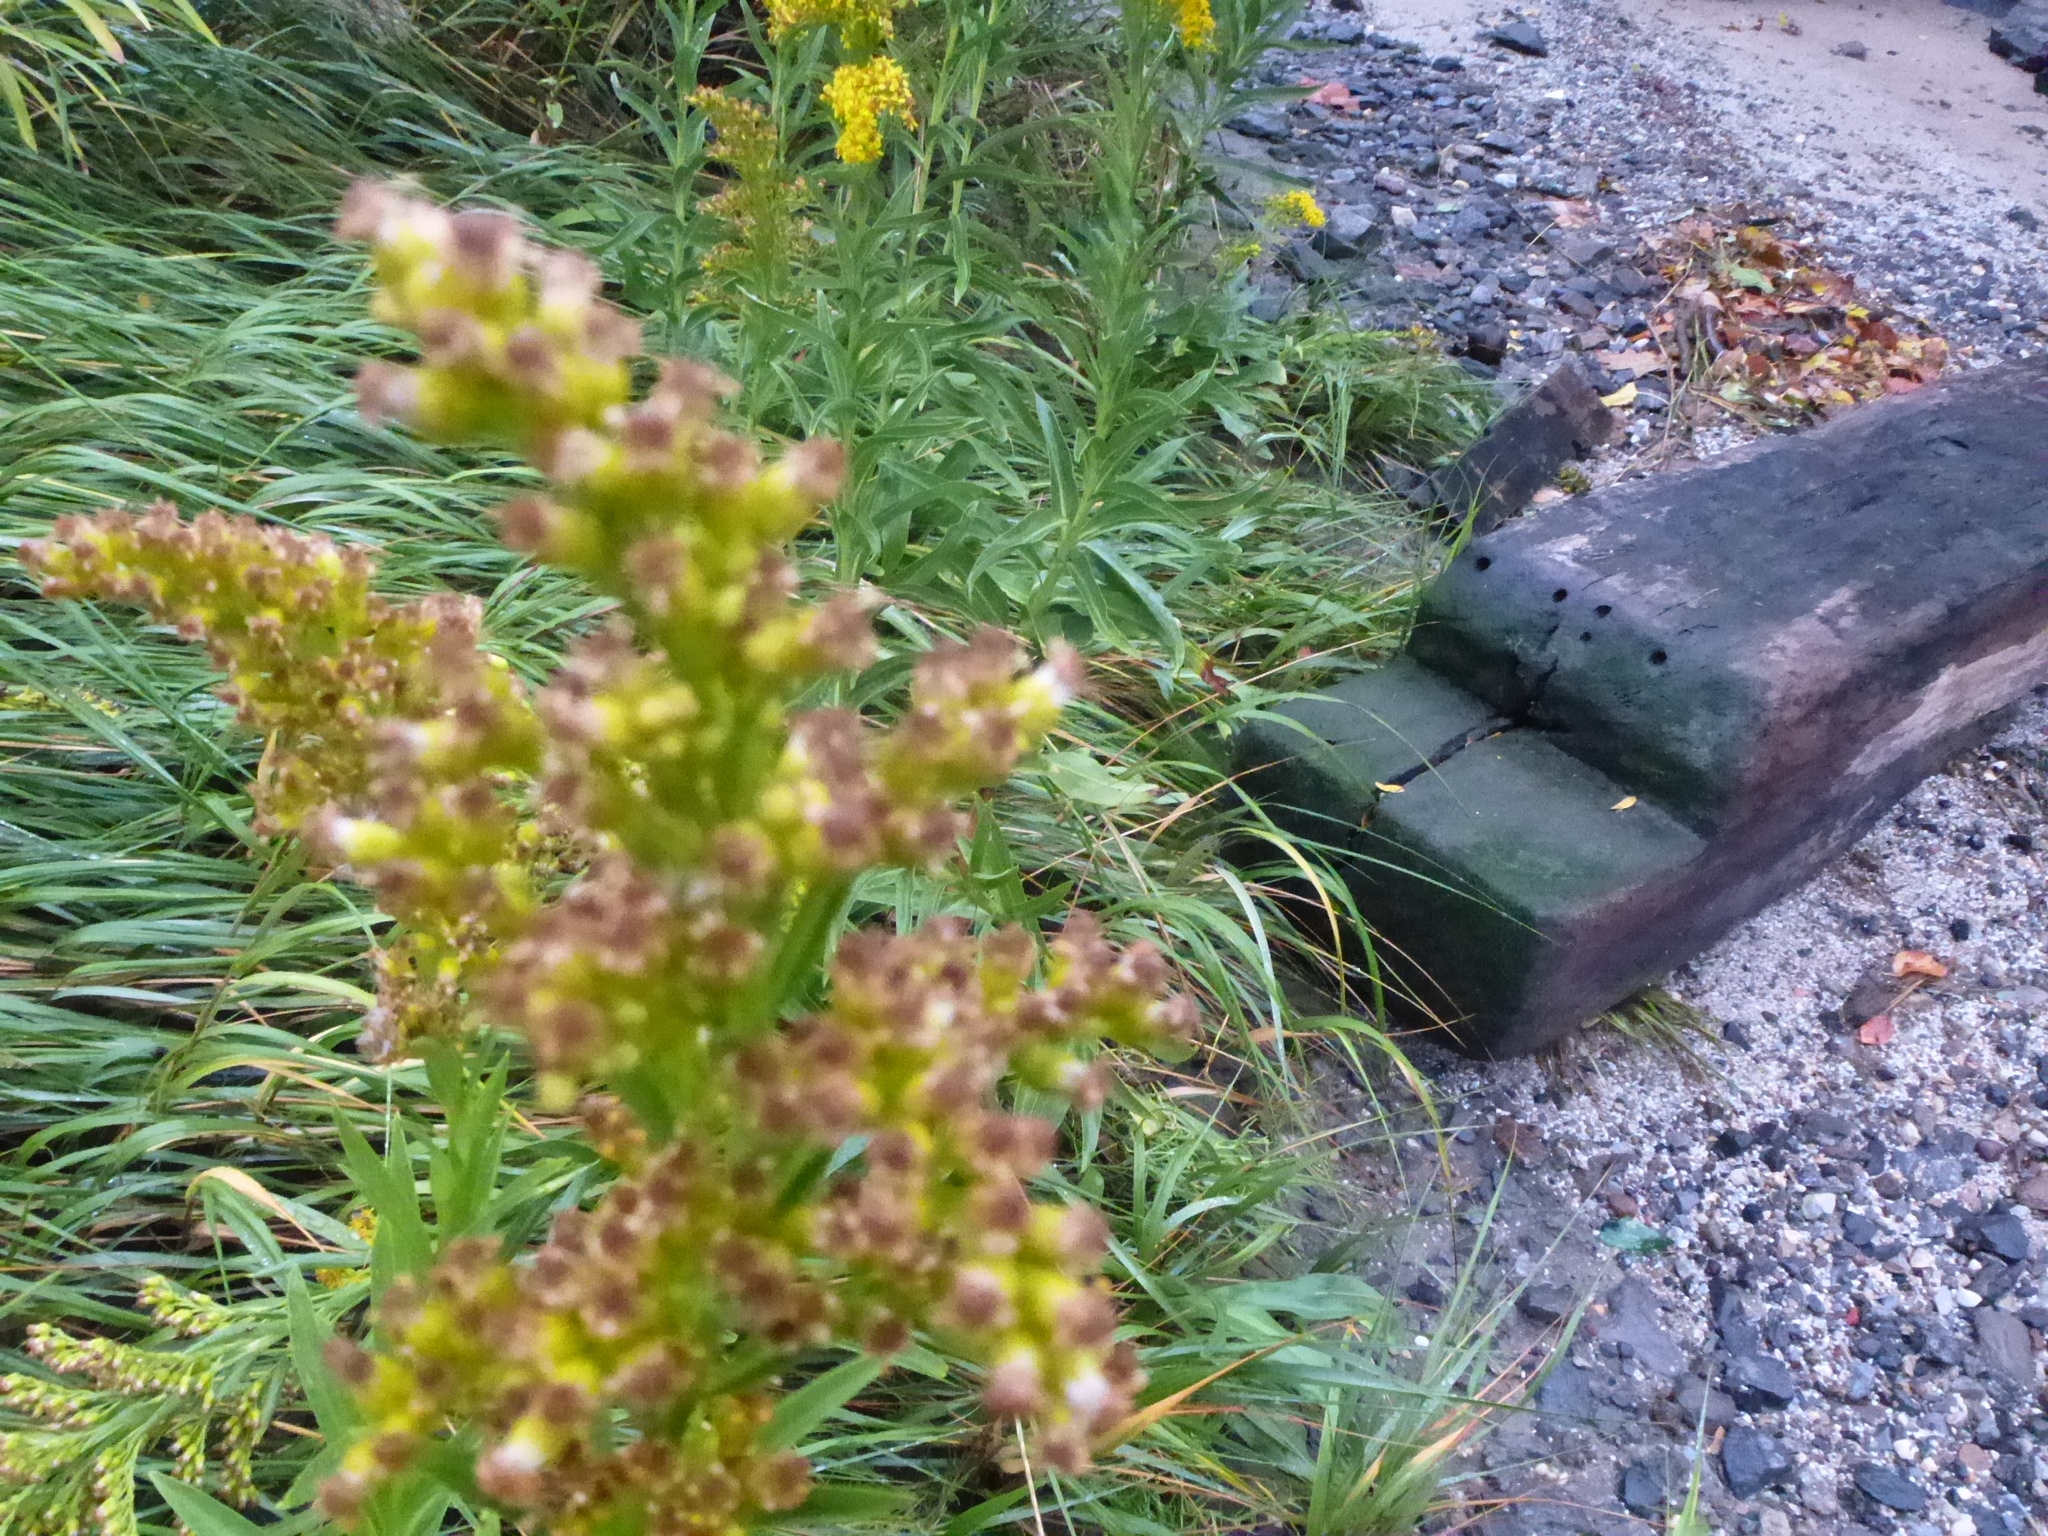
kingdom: Plantae
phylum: Tracheophyta
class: Magnoliopsida
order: Asterales
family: Asteraceae
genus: Solidago
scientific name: Solidago sempervirens
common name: Salt-marsh goldenrod
